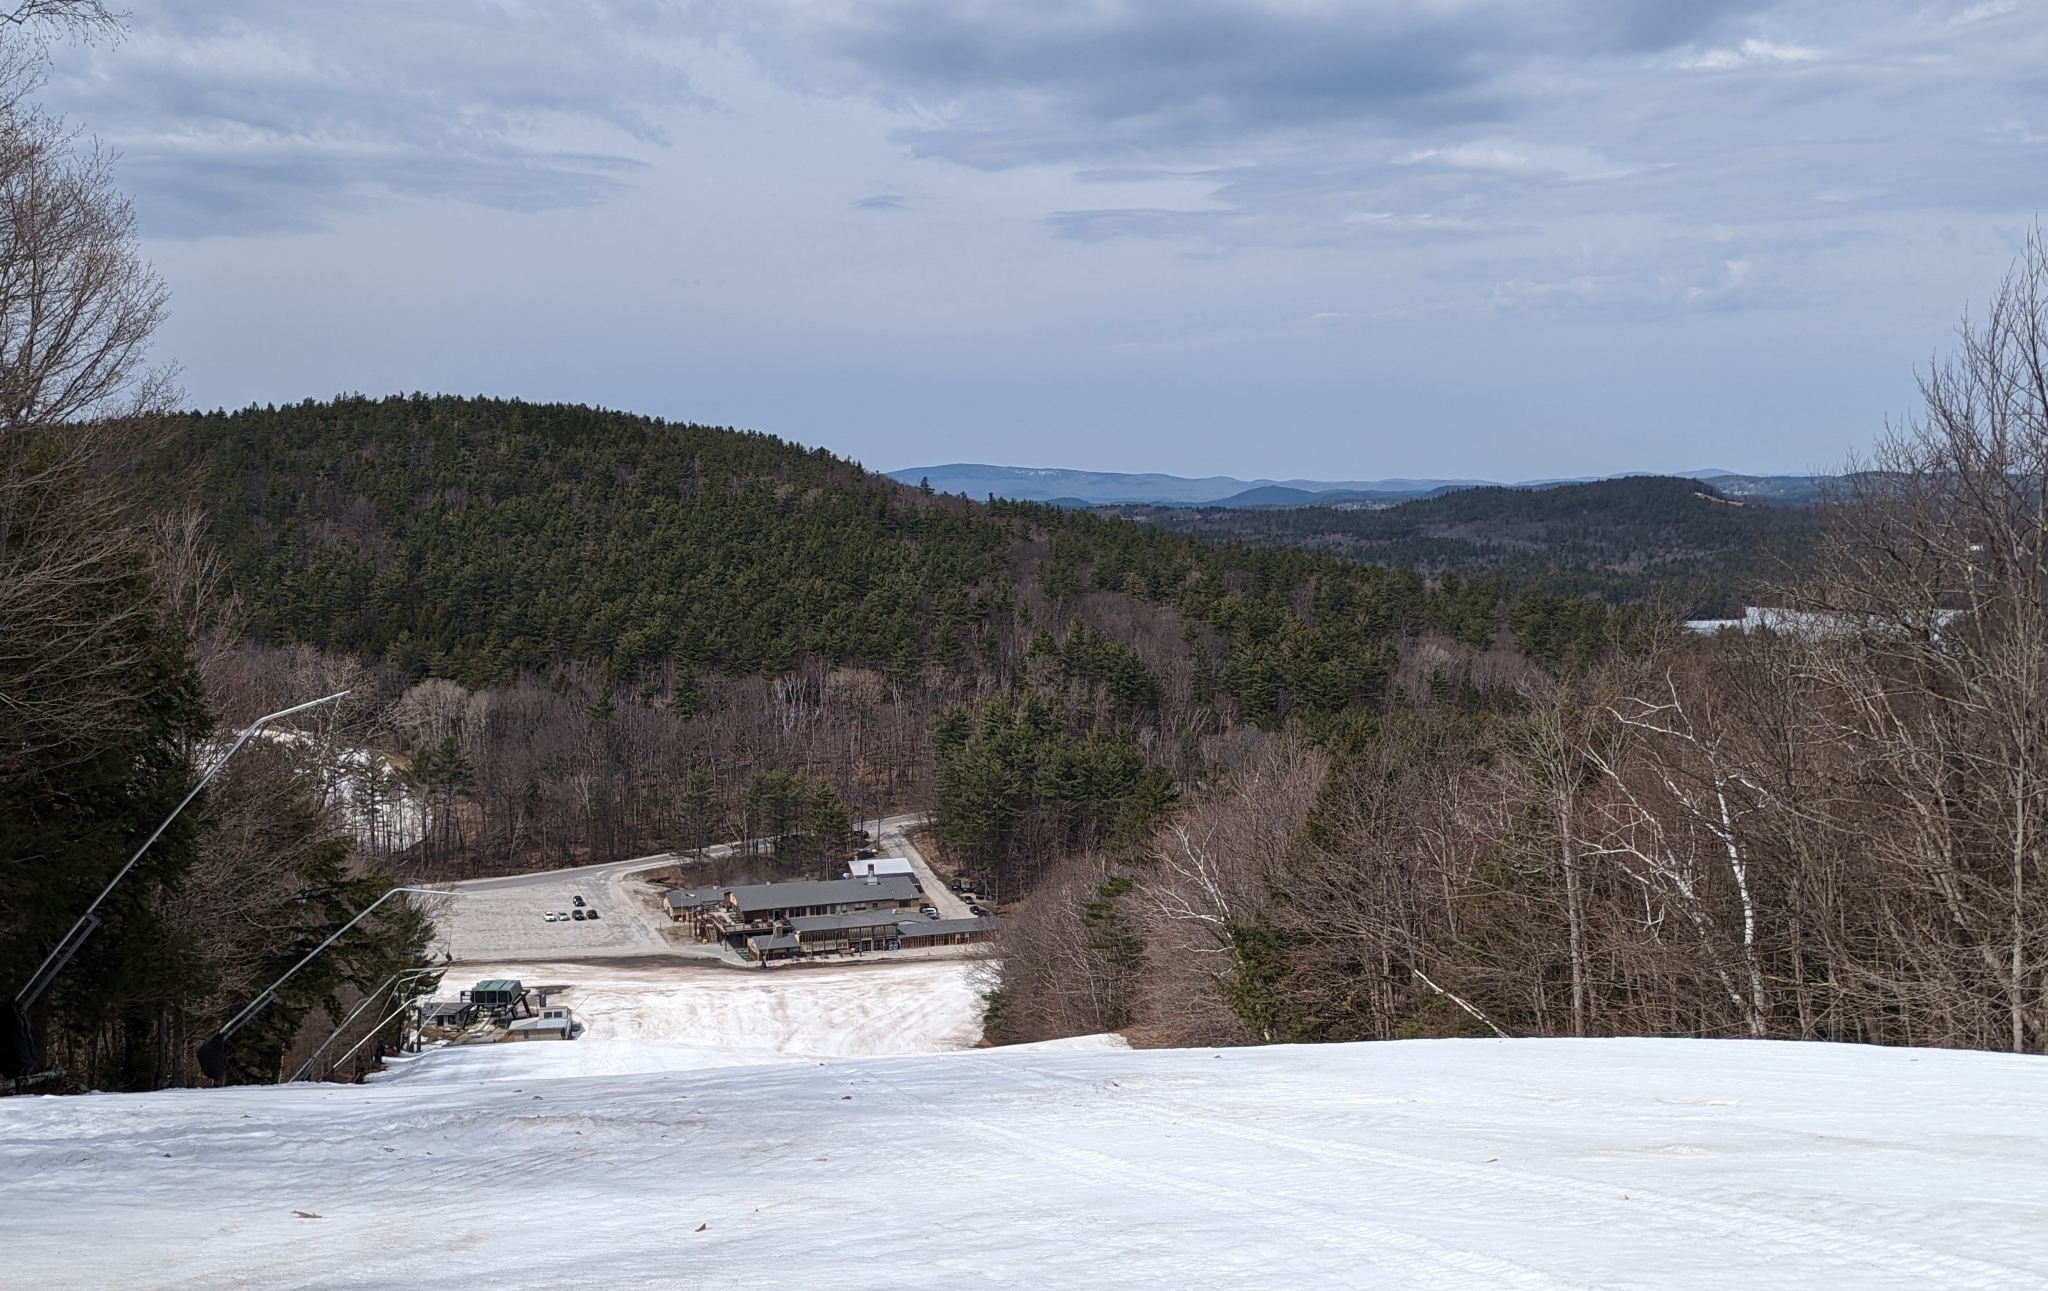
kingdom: Plantae
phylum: Tracheophyta
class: Pinopsida
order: Pinales
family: Pinaceae
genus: Pinus
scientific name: Pinus strobus
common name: Weymouth pine
